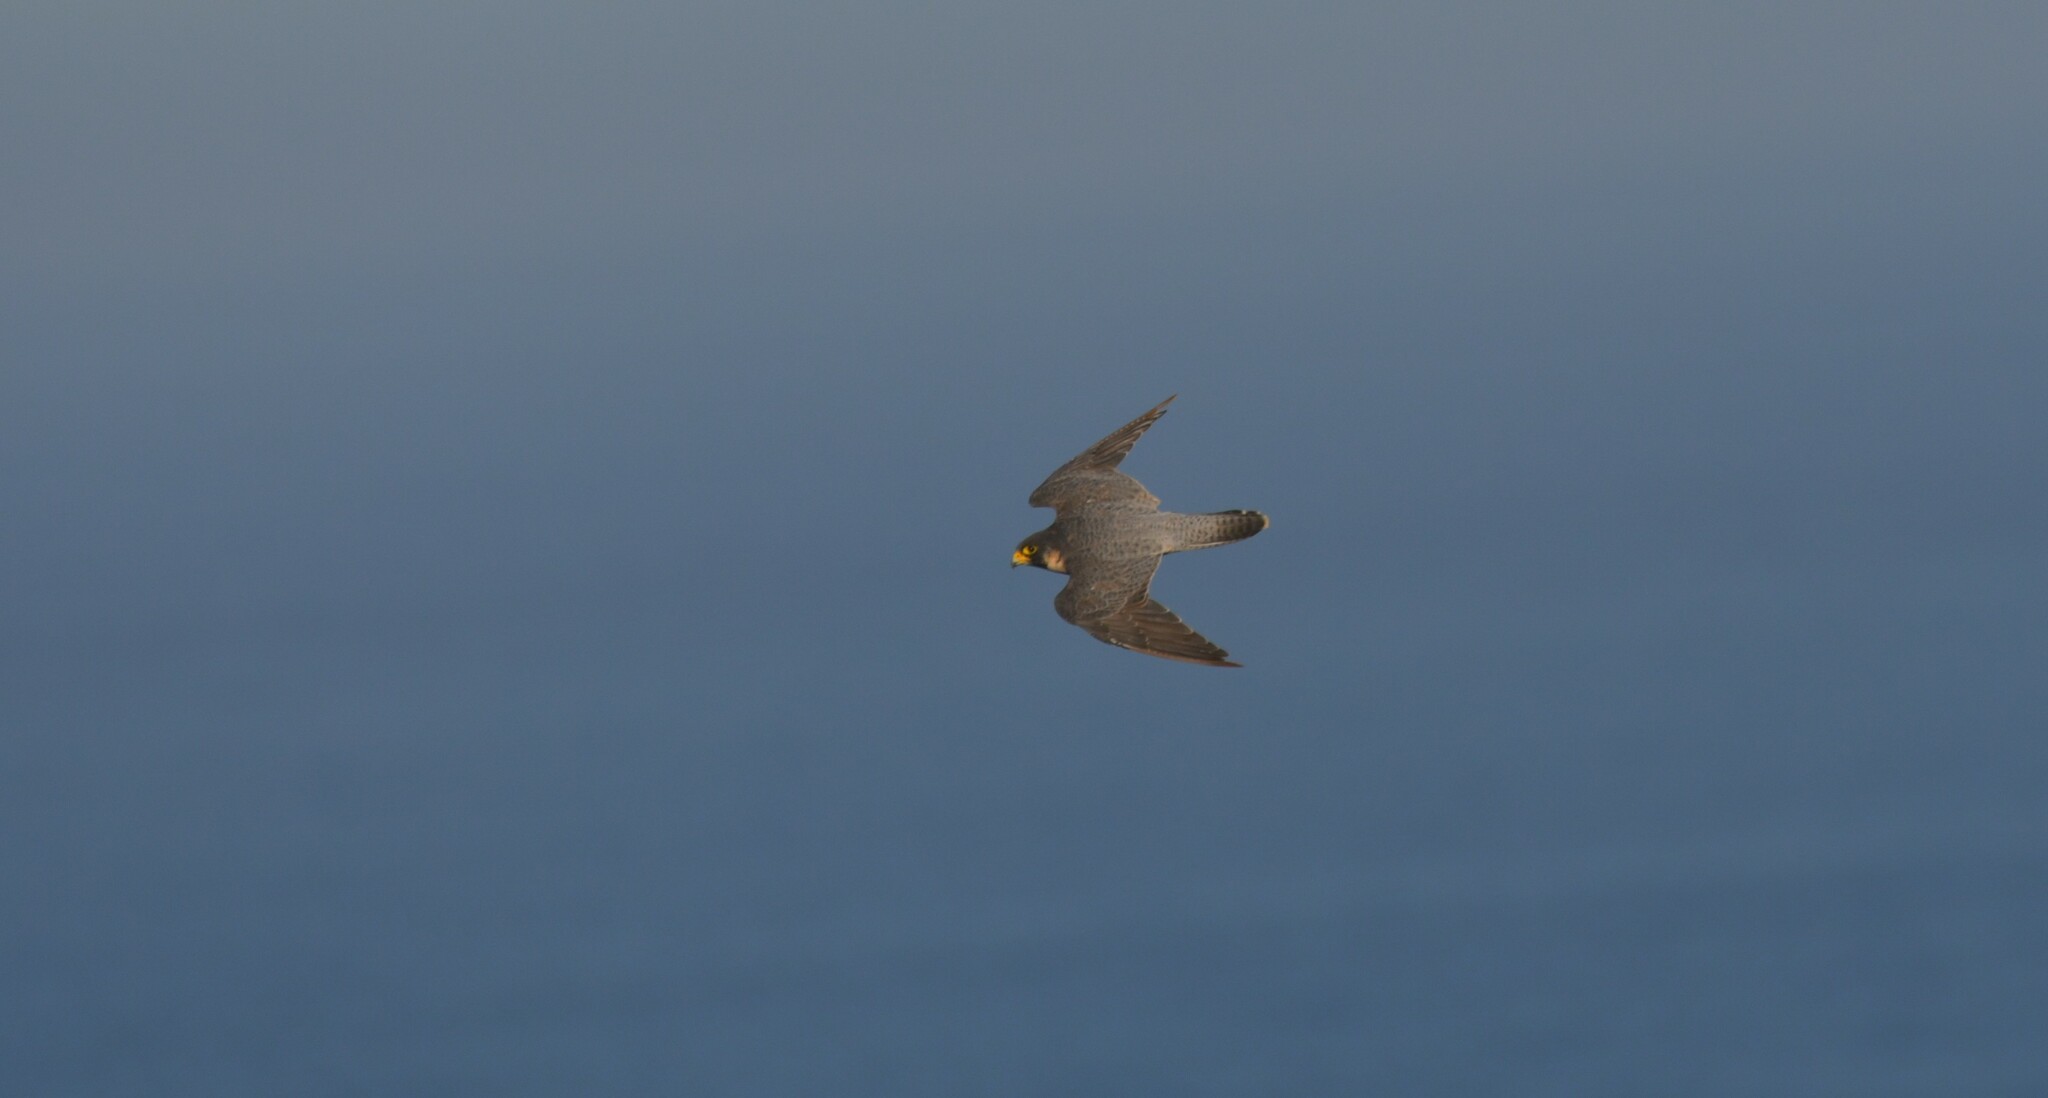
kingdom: Animalia
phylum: Chordata
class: Aves
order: Falconiformes
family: Falconidae
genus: Falco
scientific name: Falco peregrinus
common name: Peregrine falcon
